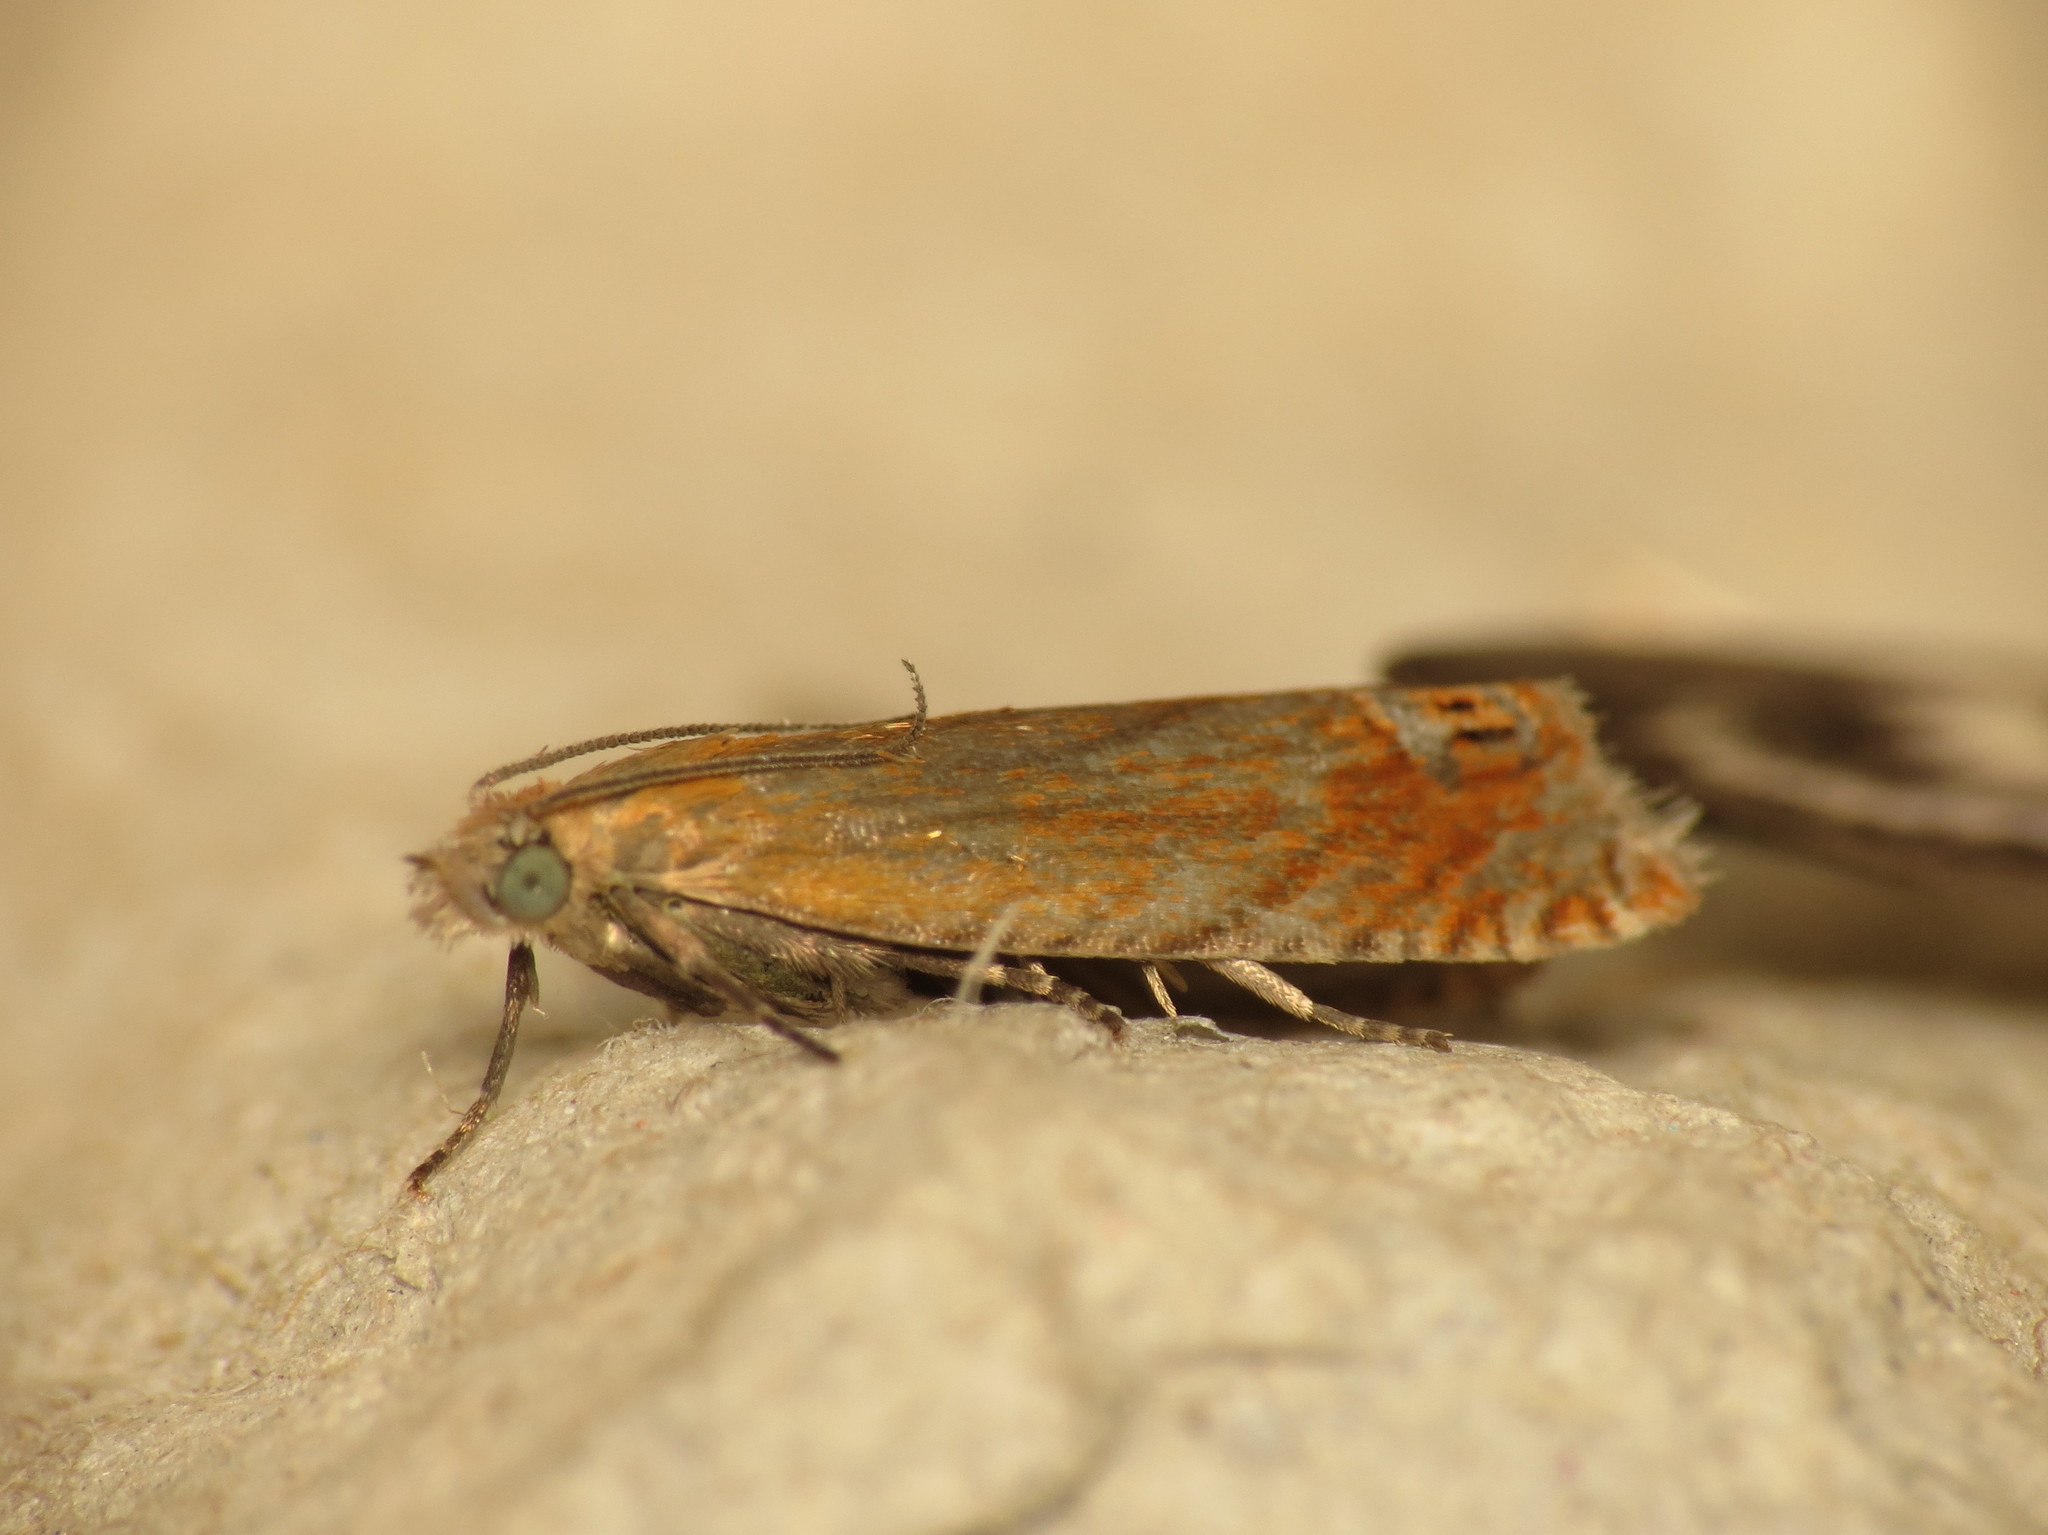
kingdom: Animalia
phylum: Arthropoda
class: Insecta
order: Lepidoptera
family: Tortricidae
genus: Lathronympha
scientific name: Lathronympha strigana
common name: Red piercer
